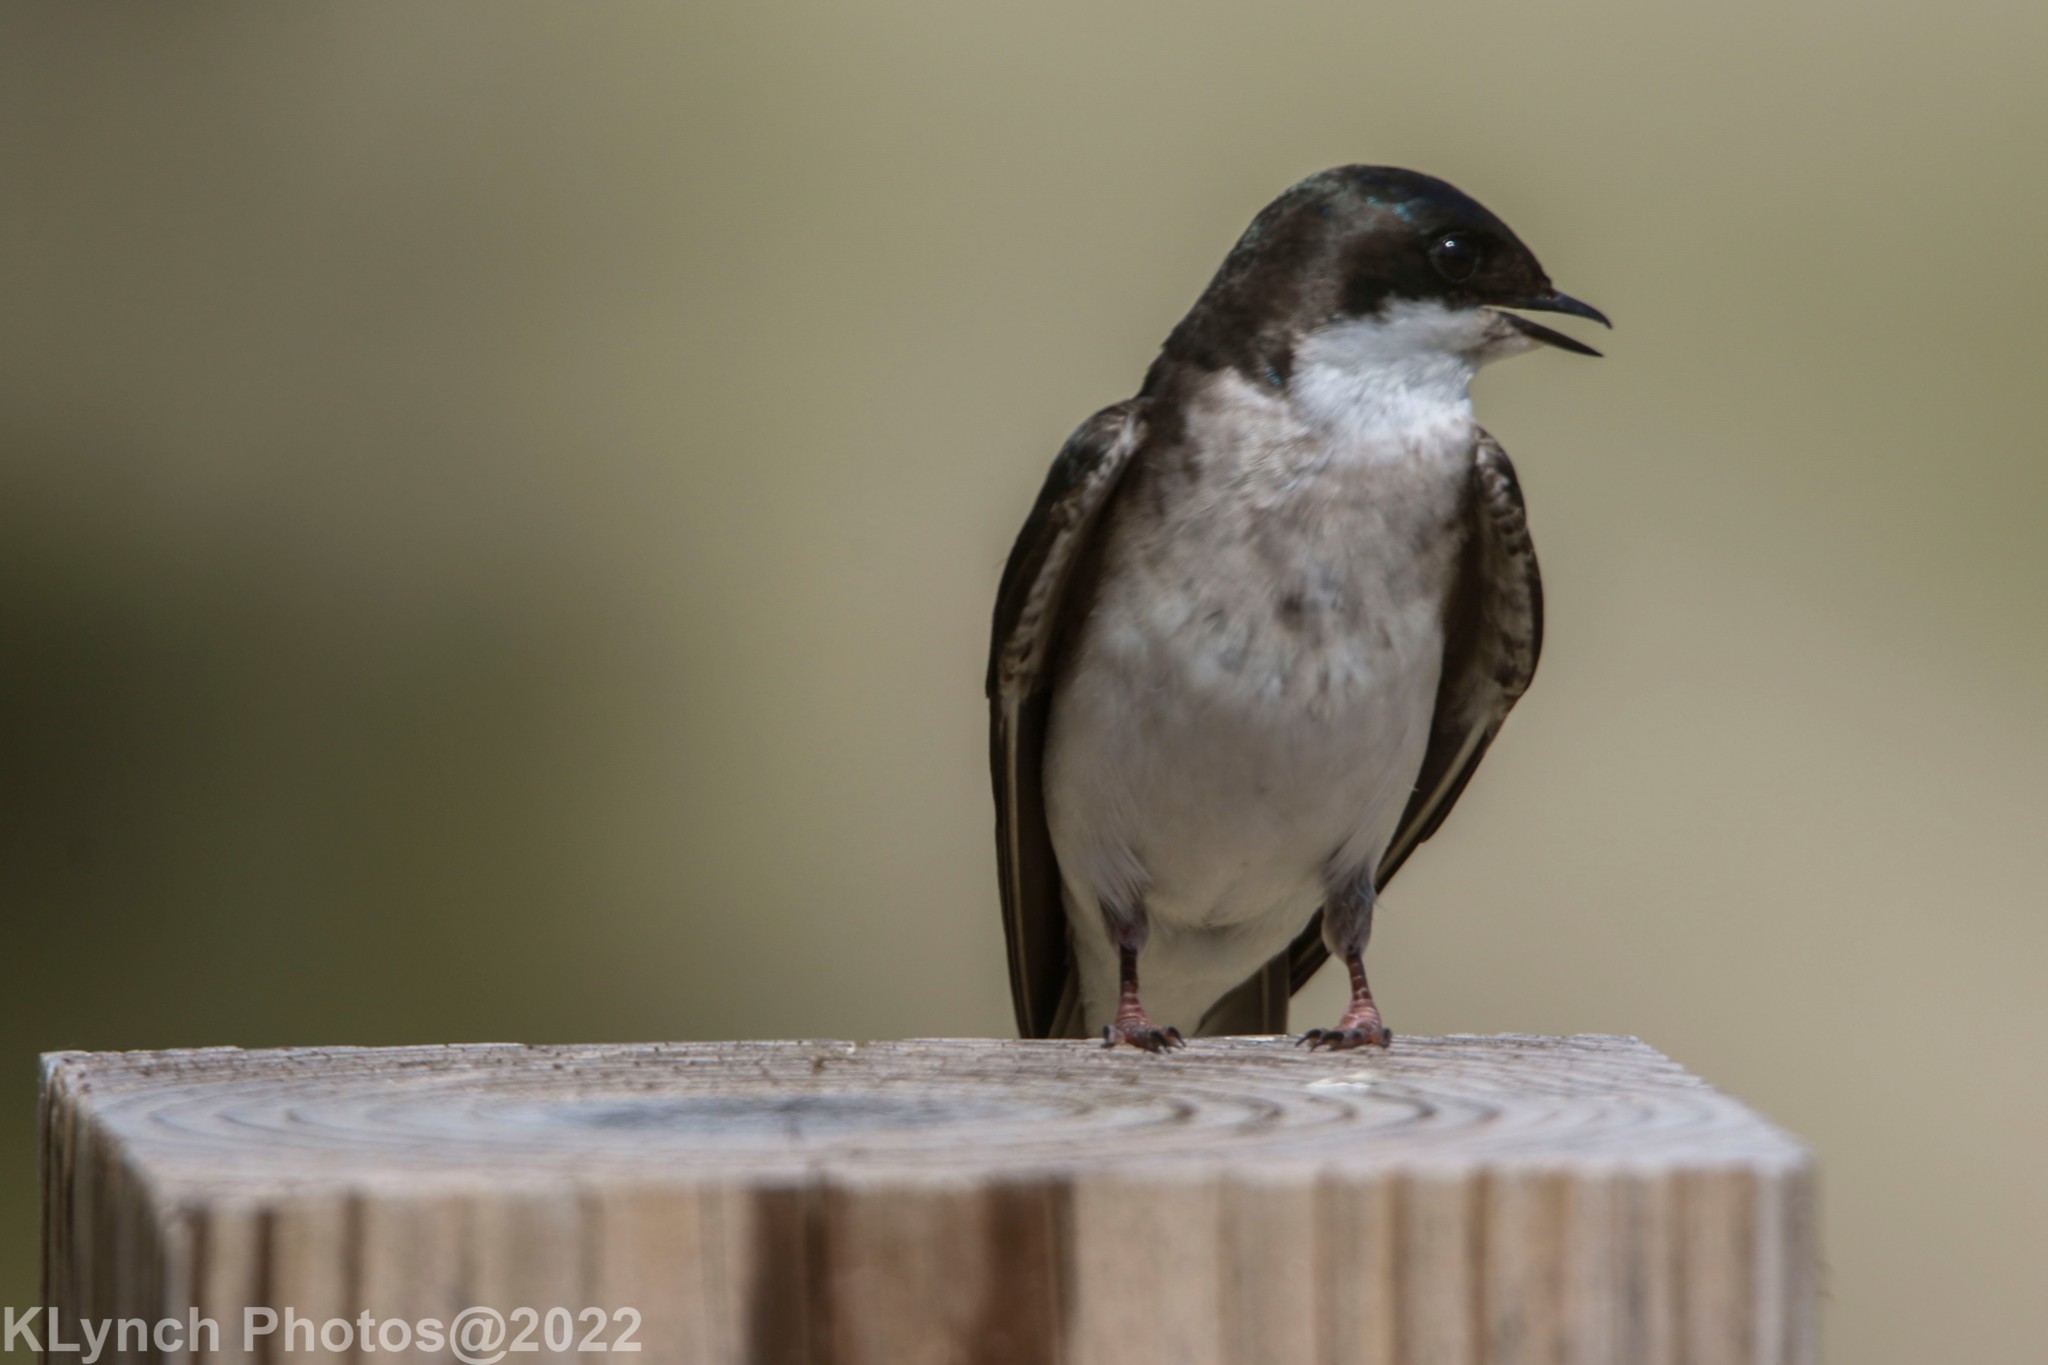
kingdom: Animalia
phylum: Chordata
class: Aves
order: Passeriformes
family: Hirundinidae
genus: Tachycineta
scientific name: Tachycineta bicolor
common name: Tree swallow
